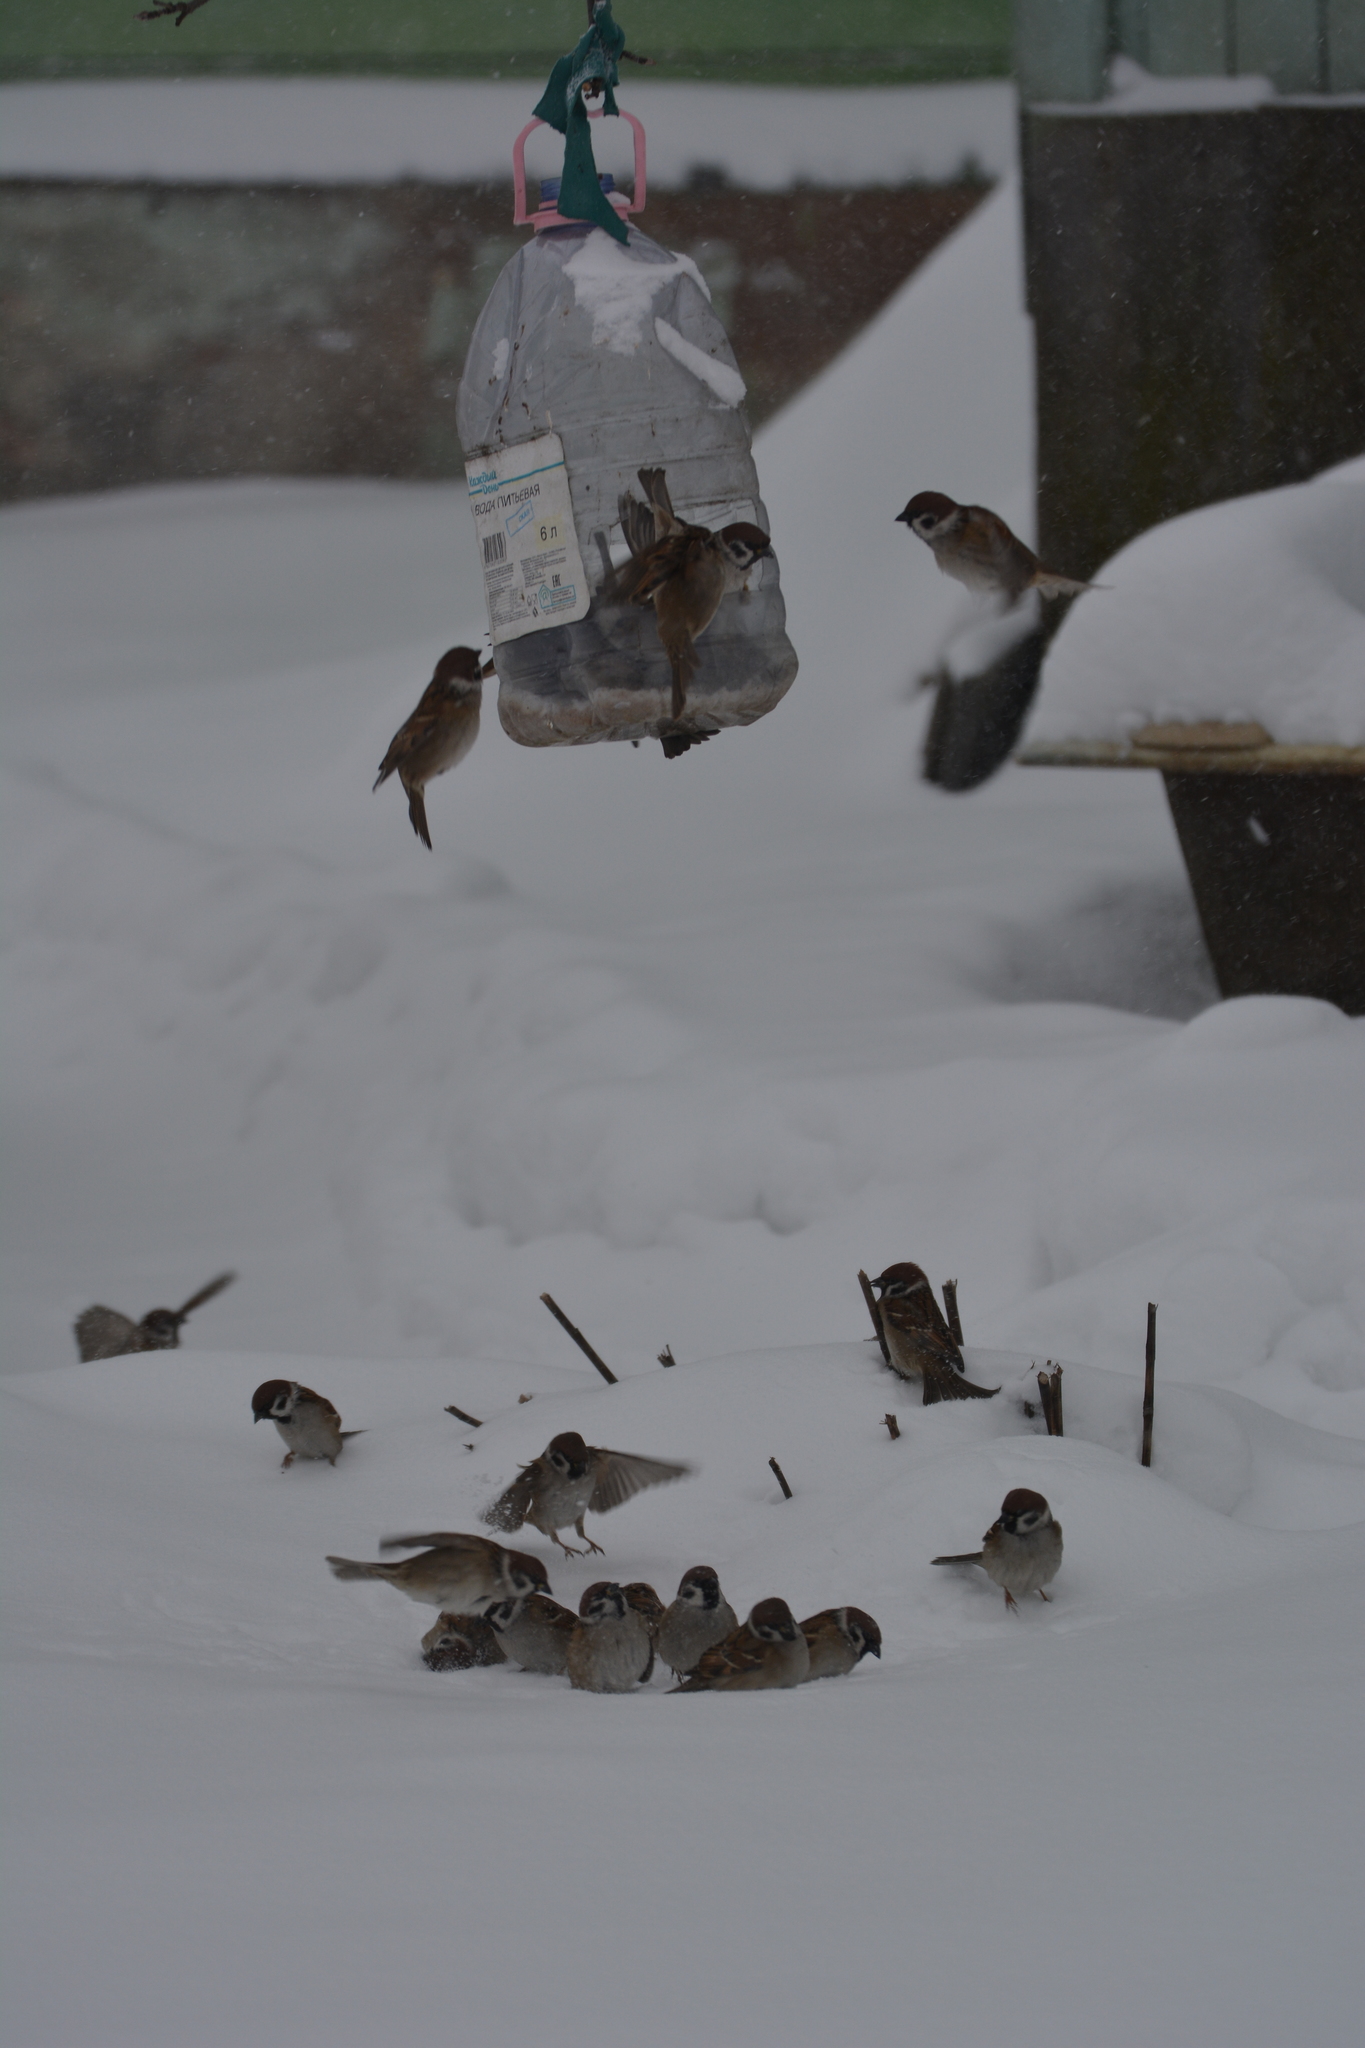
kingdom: Animalia
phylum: Chordata
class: Aves
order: Passeriformes
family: Passeridae
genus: Passer
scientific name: Passer montanus
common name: Eurasian tree sparrow
